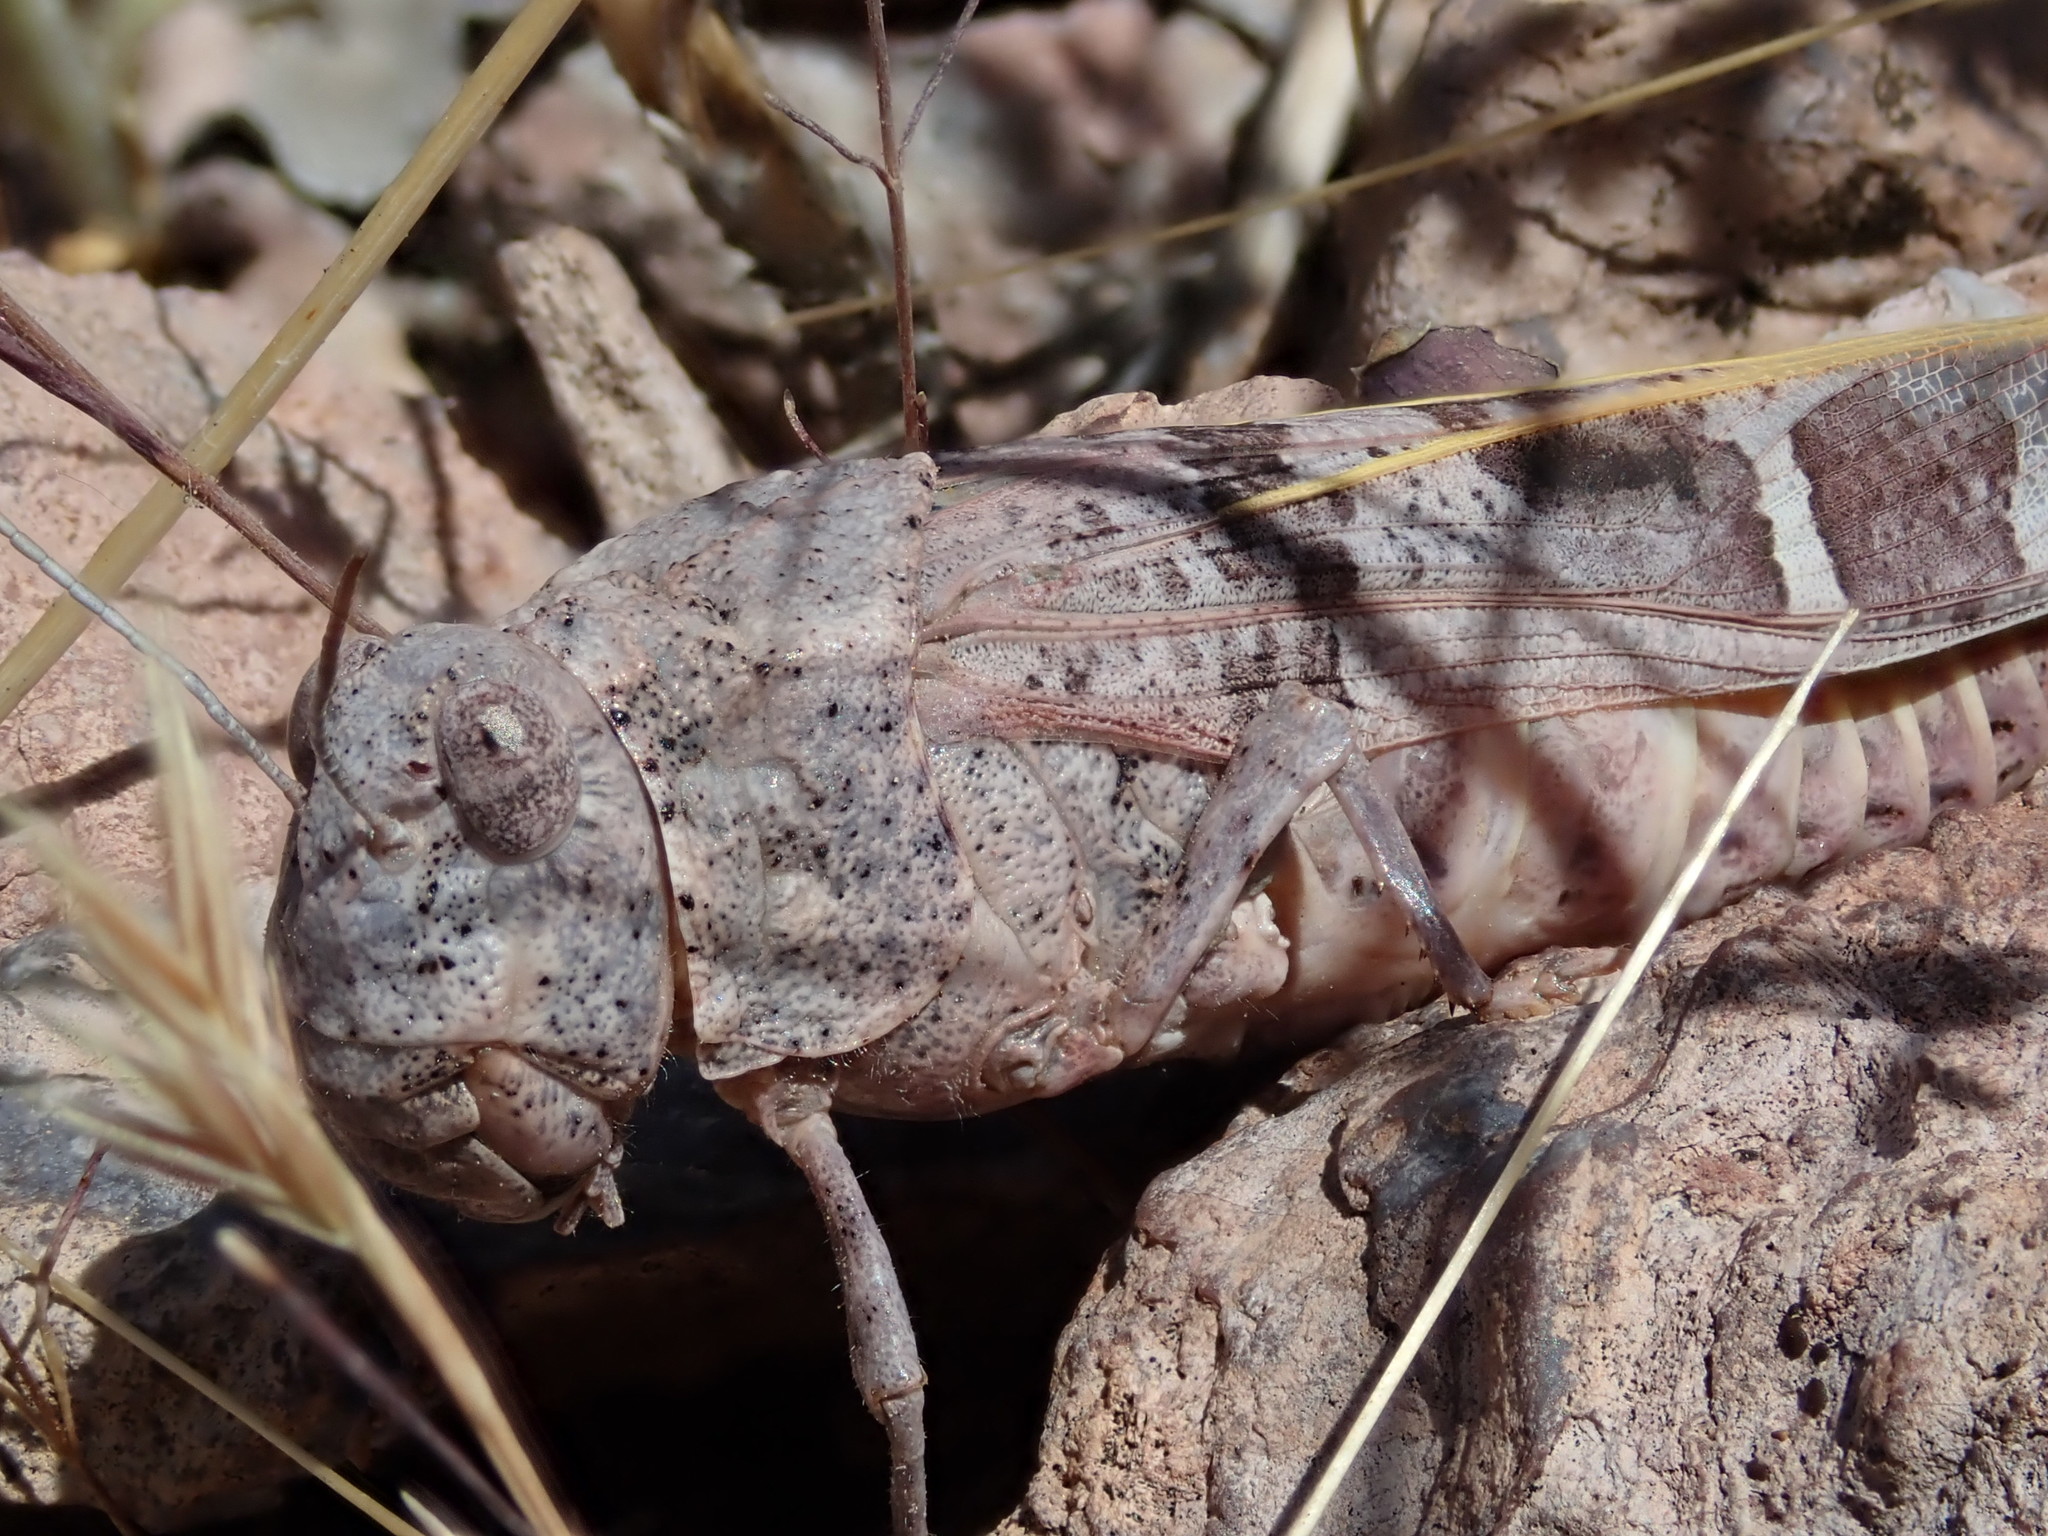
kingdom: Animalia
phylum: Arthropoda
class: Insecta
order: Orthoptera
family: Acrididae
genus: Leprus
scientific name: Leprus intermedius
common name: Saussure's blue-winged grasshopper
